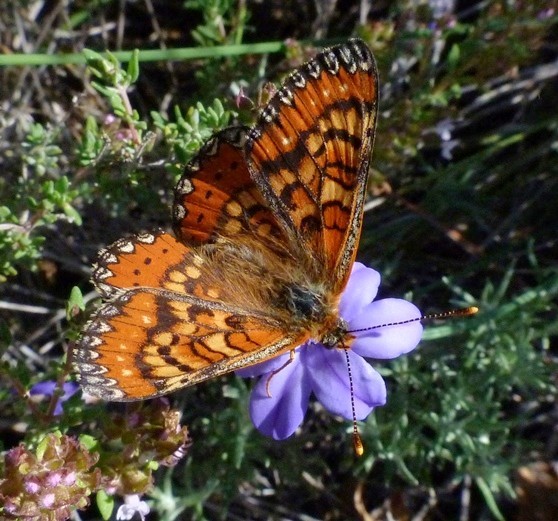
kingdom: Animalia
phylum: Arthropoda
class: Insecta
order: Lepidoptera
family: Nymphalidae
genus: Euphydryas
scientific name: Euphydryas desfontainii
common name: Spanish fritillary
